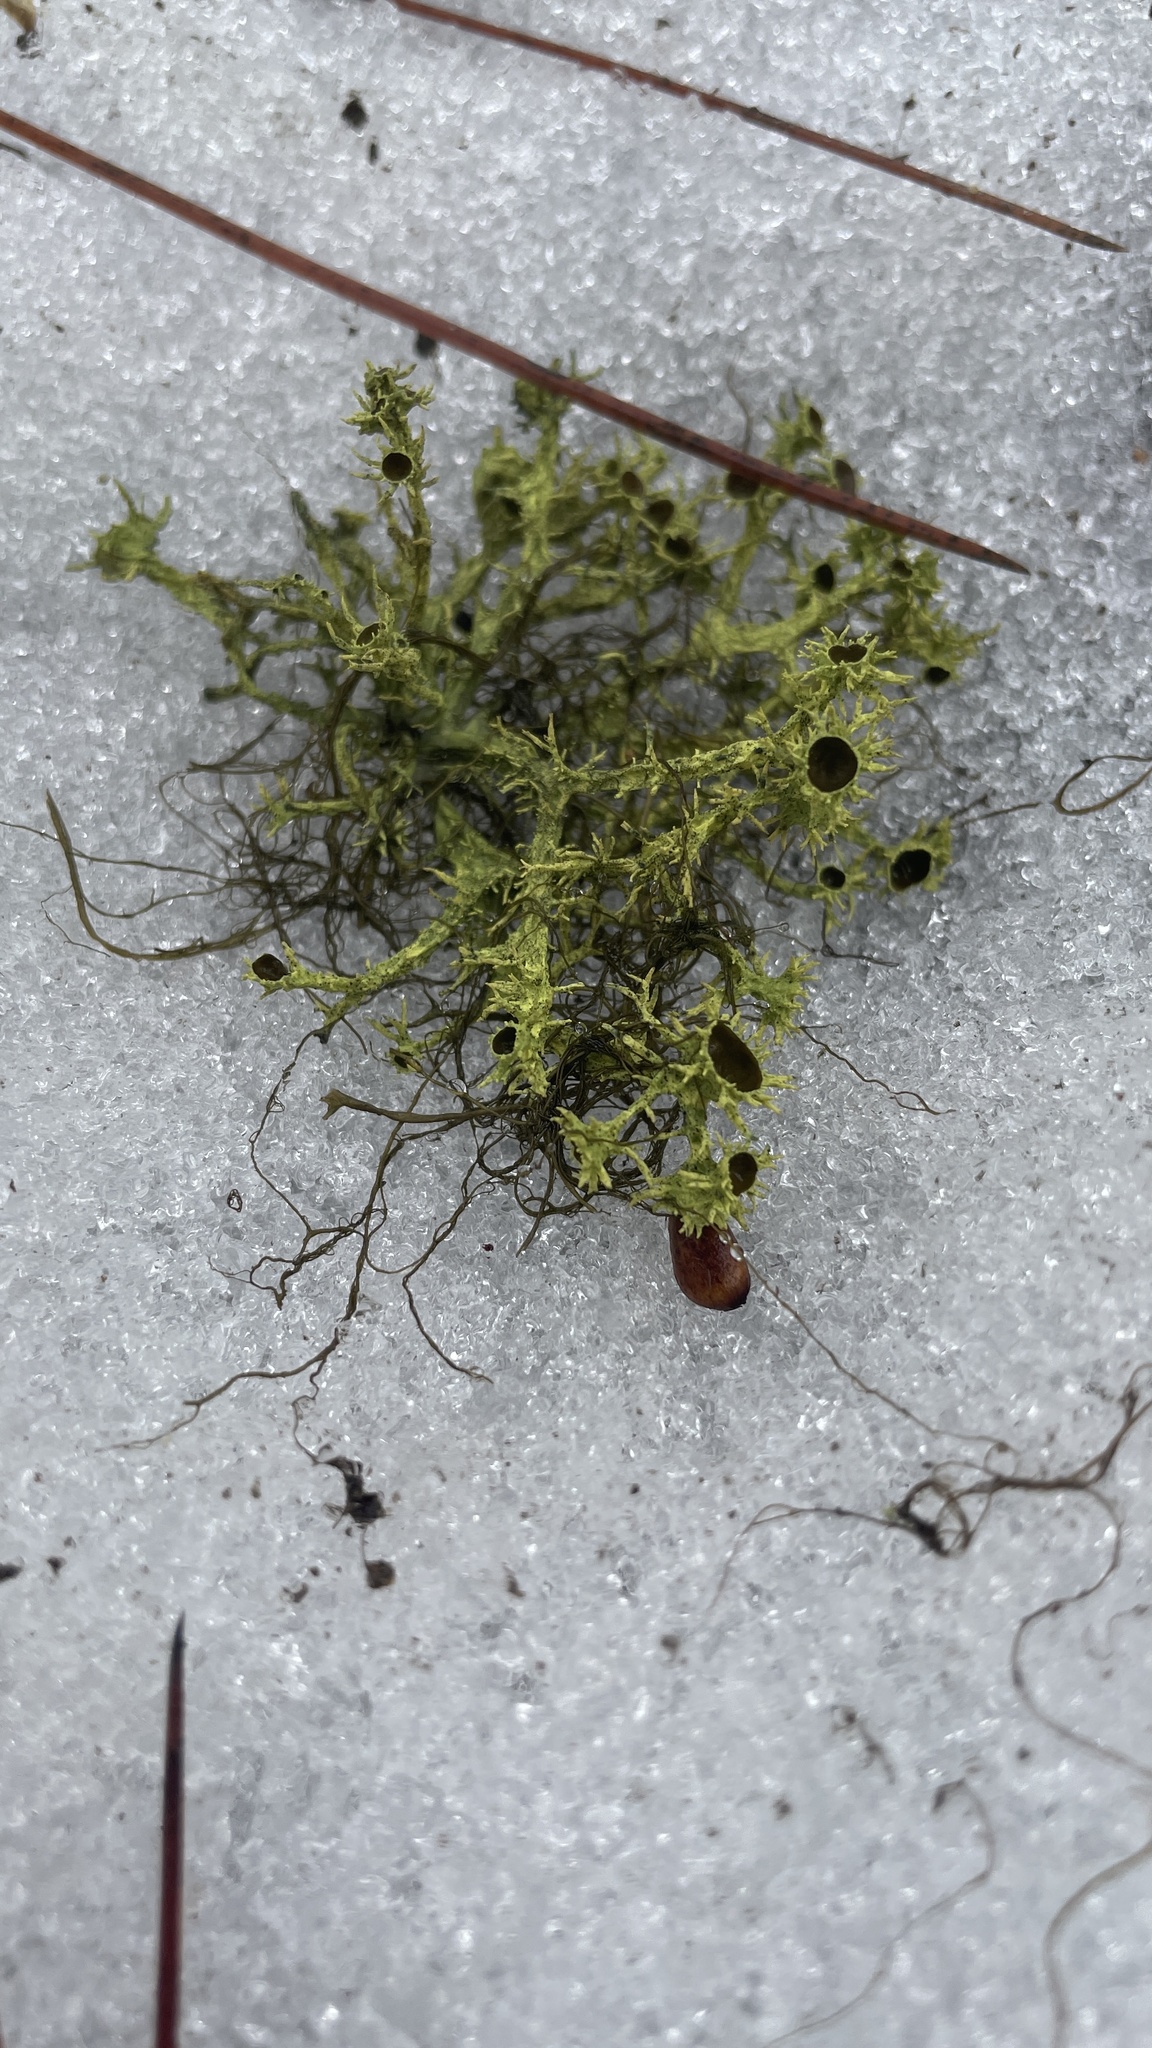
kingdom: Fungi
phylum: Ascomycota
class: Lecanoromycetes
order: Lecanorales
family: Parmeliaceae
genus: Letharia
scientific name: Letharia columbiana
